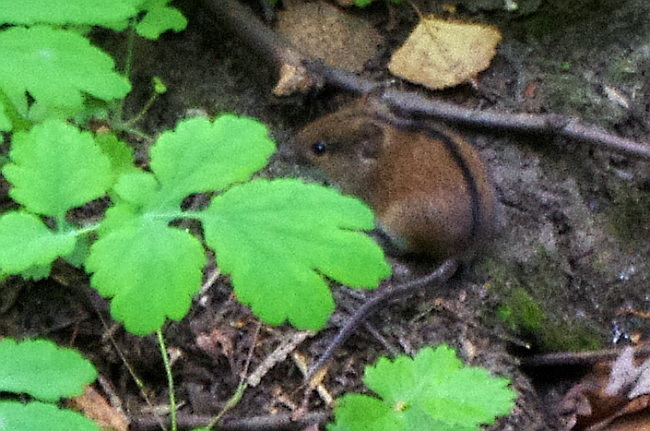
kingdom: Animalia
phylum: Chordata
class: Mammalia
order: Rodentia
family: Muridae
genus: Apodemus
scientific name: Apodemus agrarius
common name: Striped field mouse
